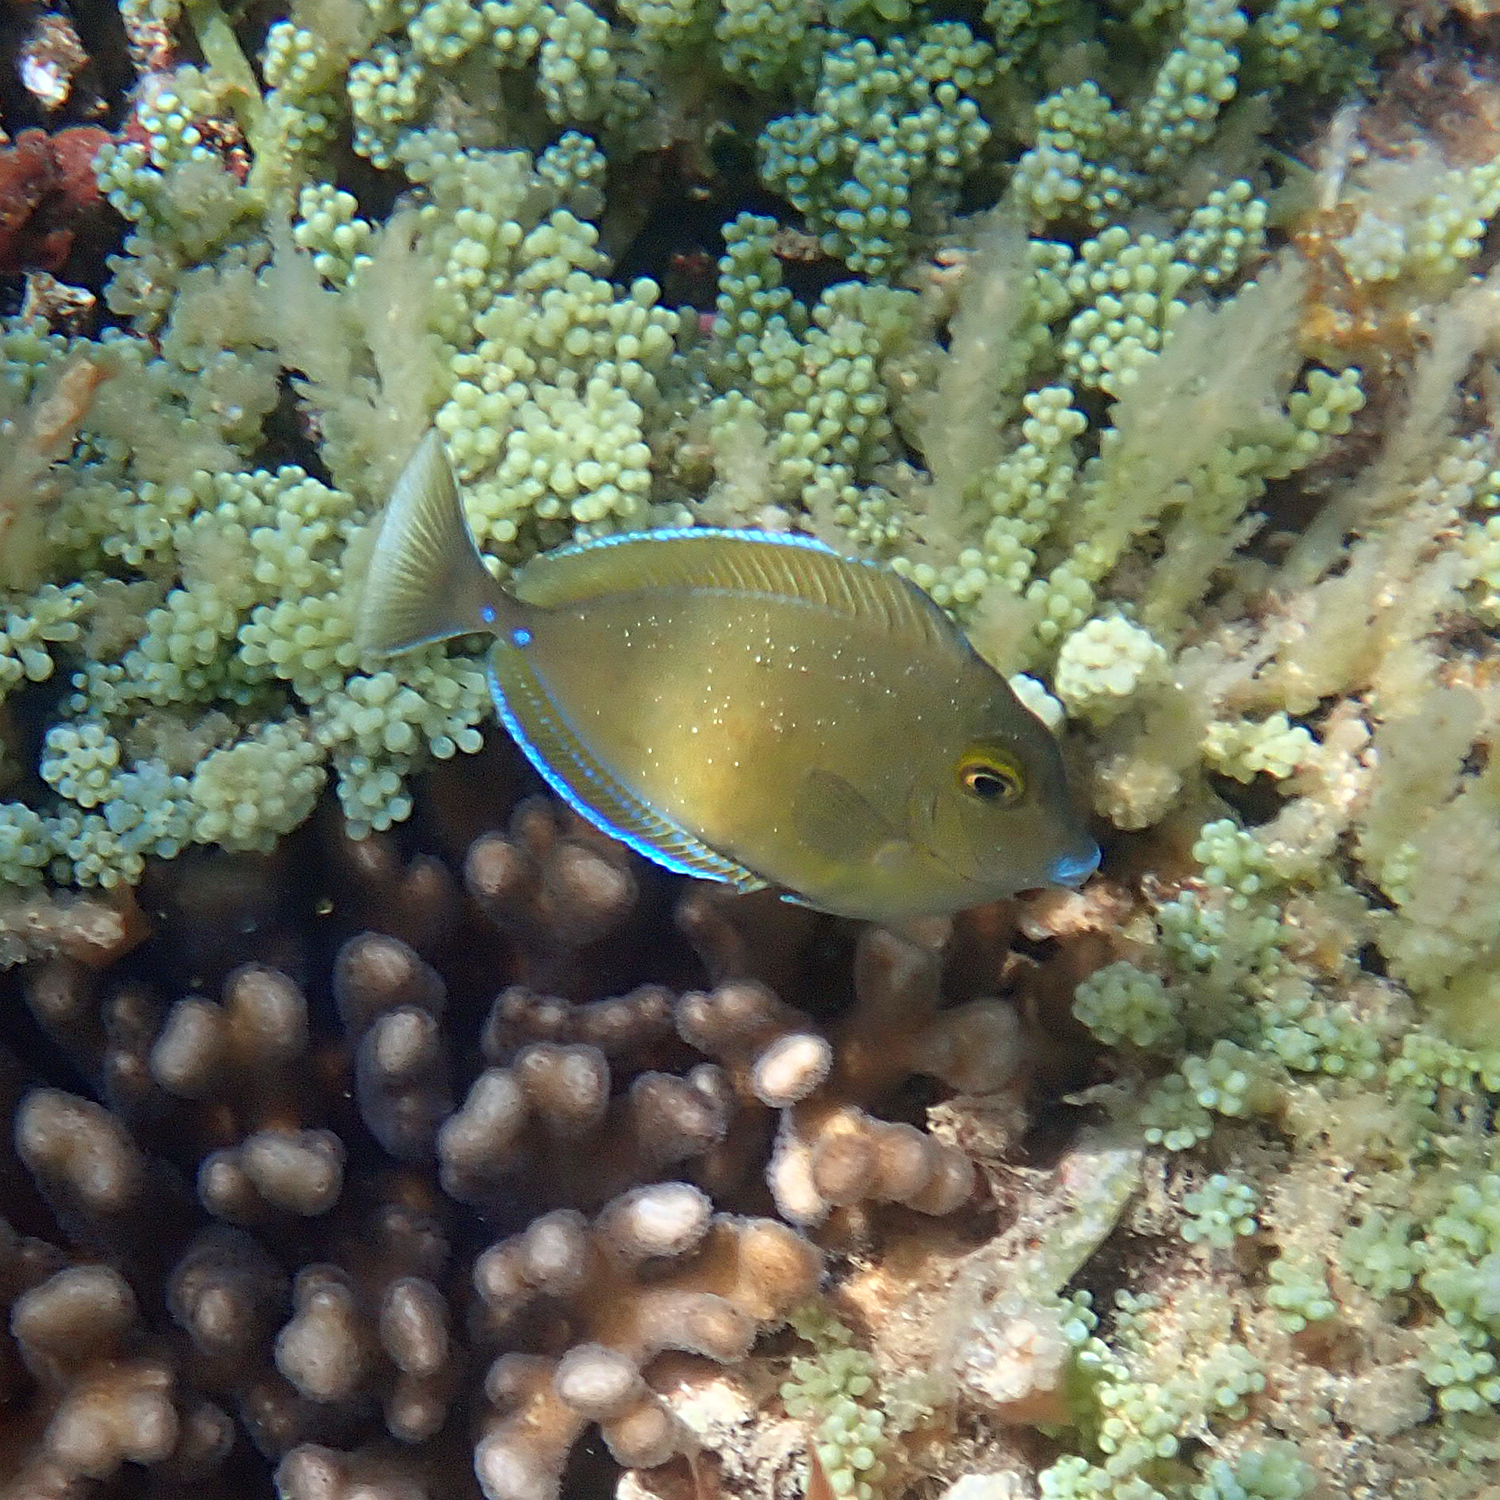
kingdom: Animalia
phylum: Chordata
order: Perciformes
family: Acanthuridae
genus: Naso
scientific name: Naso unicornis
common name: Bluespine unicornfish
